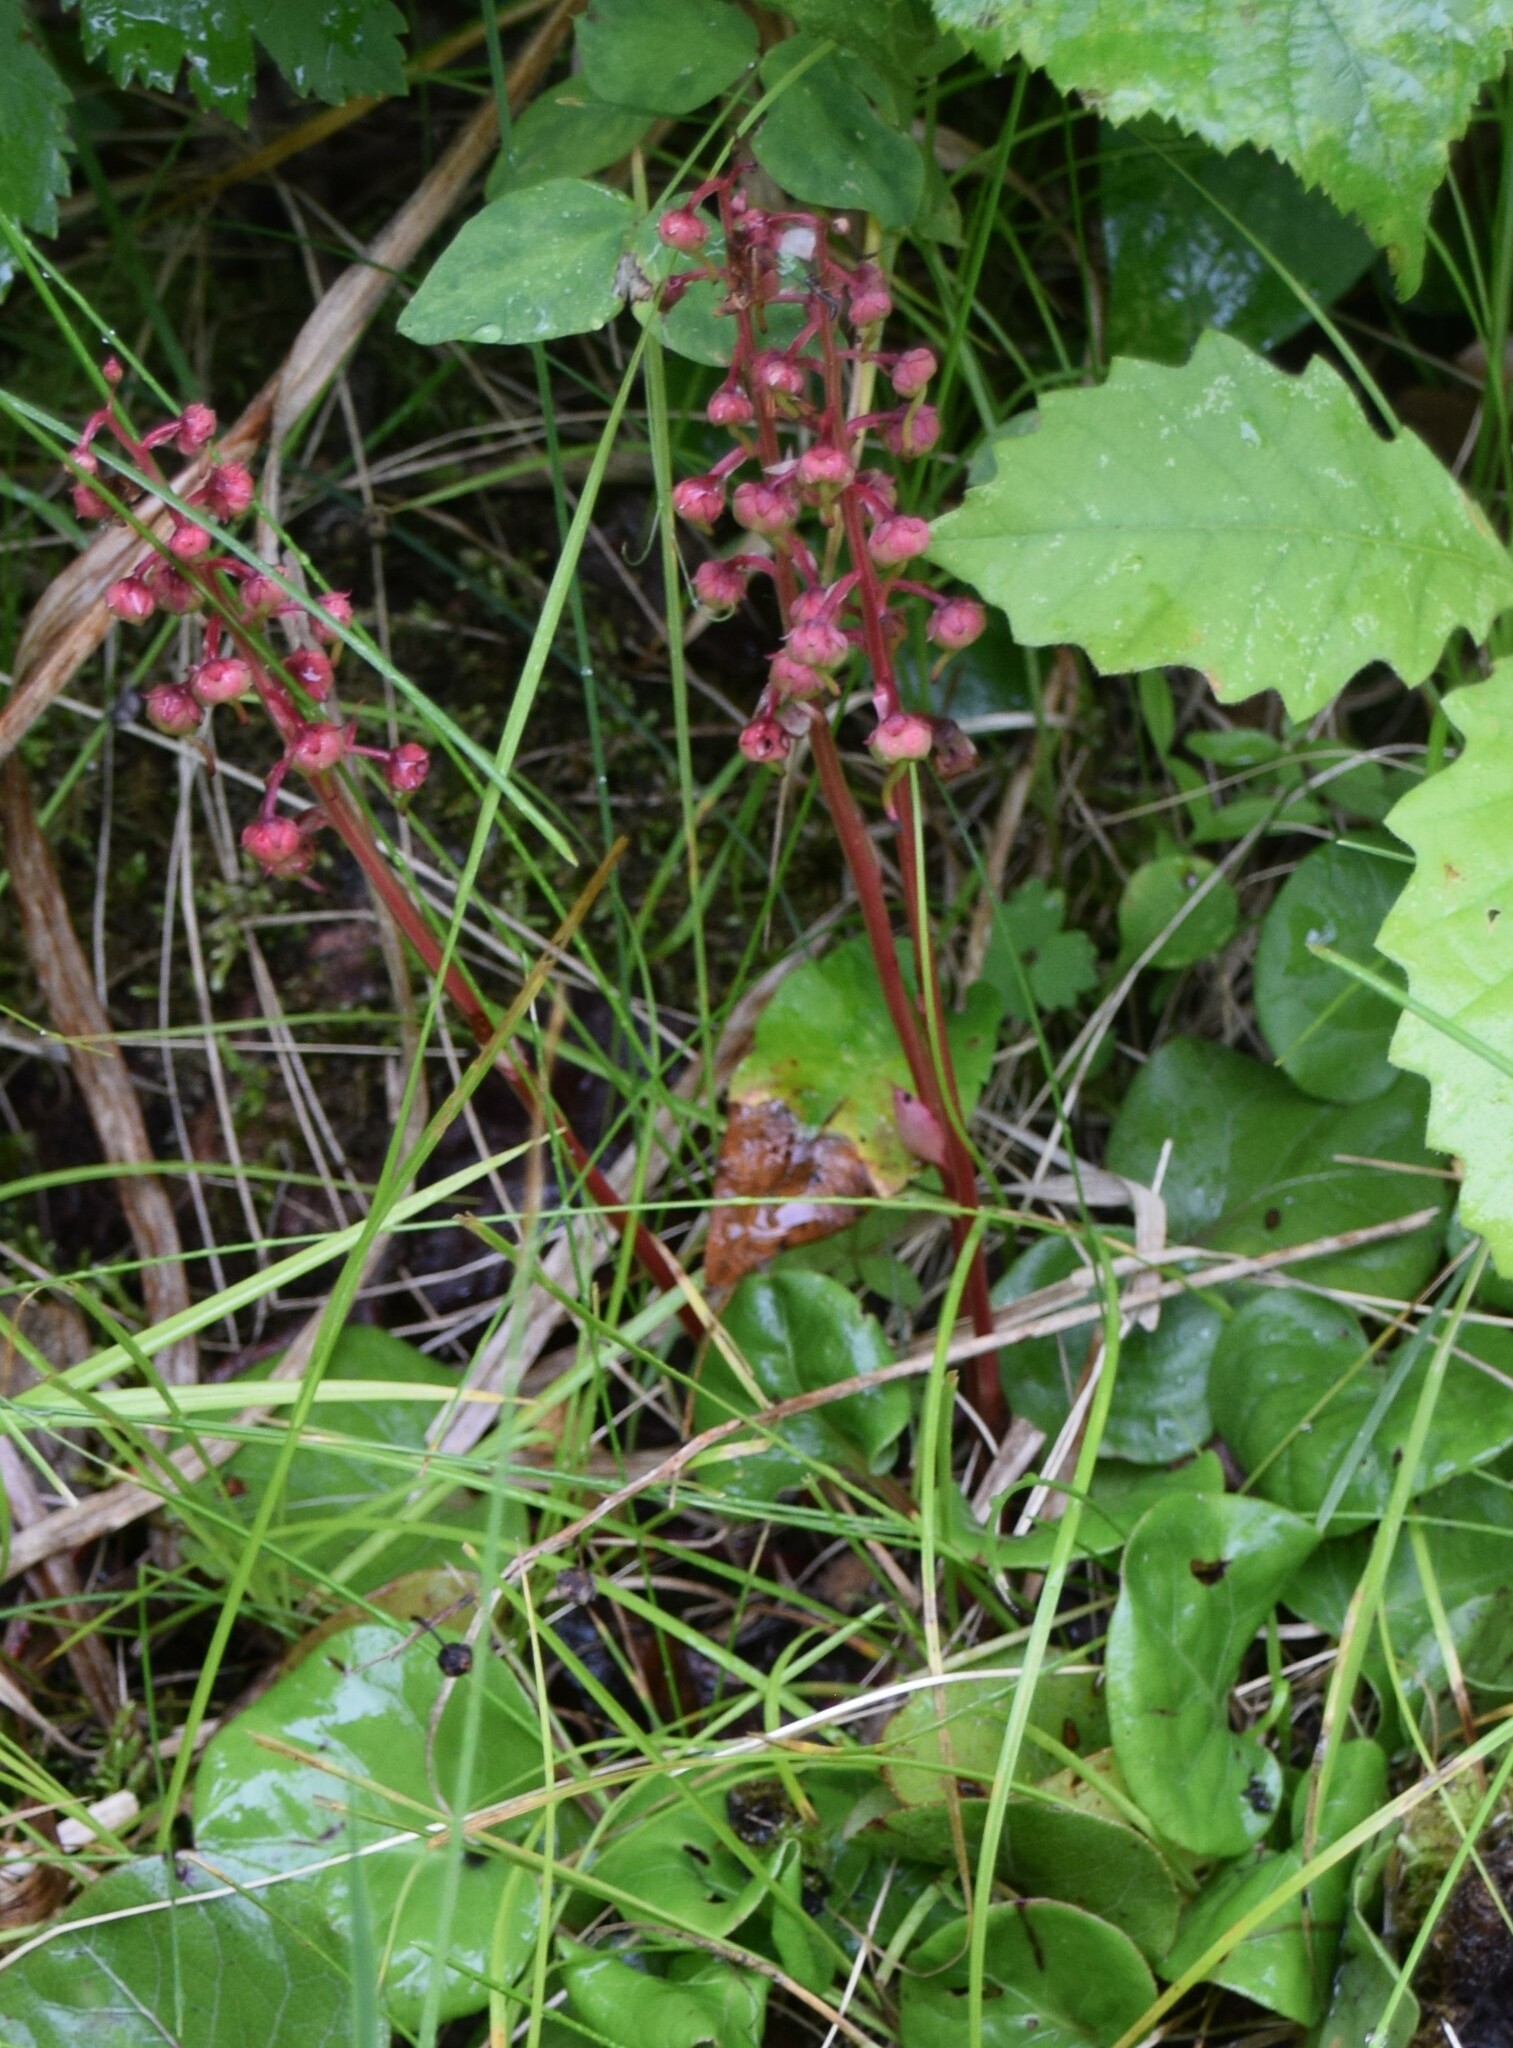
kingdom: Plantae
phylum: Tracheophyta
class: Magnoliopsida
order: Ericales
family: Ericaceae
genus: Pyrola
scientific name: Pyrola asarifolia
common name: Bog wintergreen
